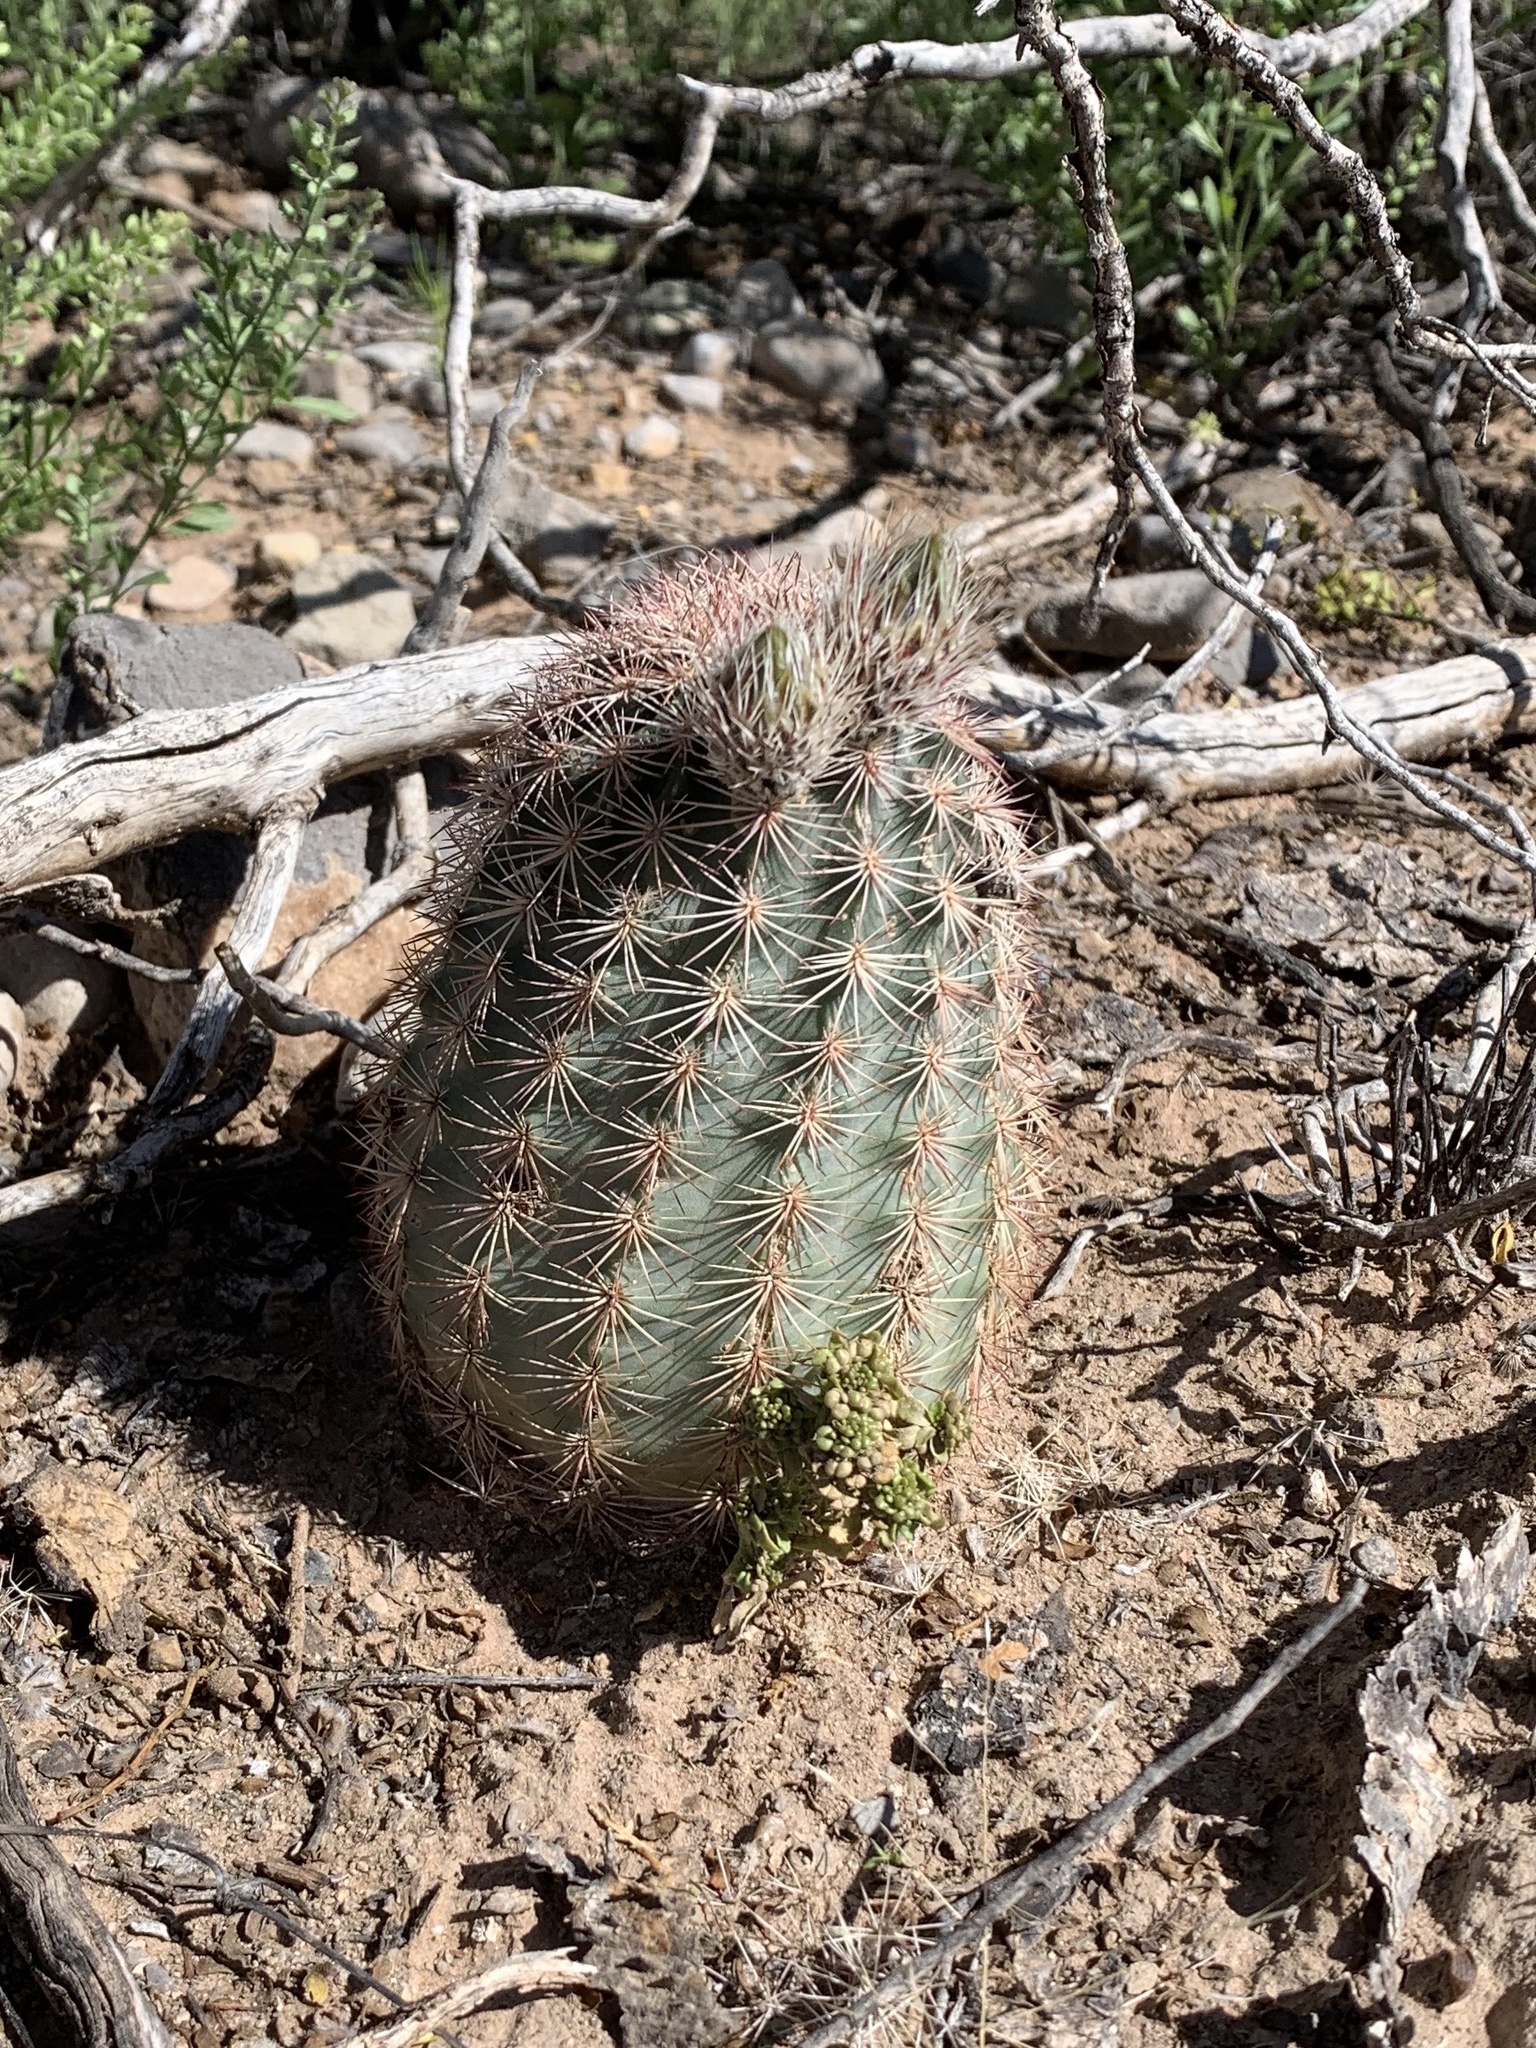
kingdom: Plantae
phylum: Tracheophyta
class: Magnoliopsida
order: Caryophyllales
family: Cactaceae
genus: Echinocereus
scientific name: Echinocereus dasyacanthus
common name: Spiny hedgehog cactus
